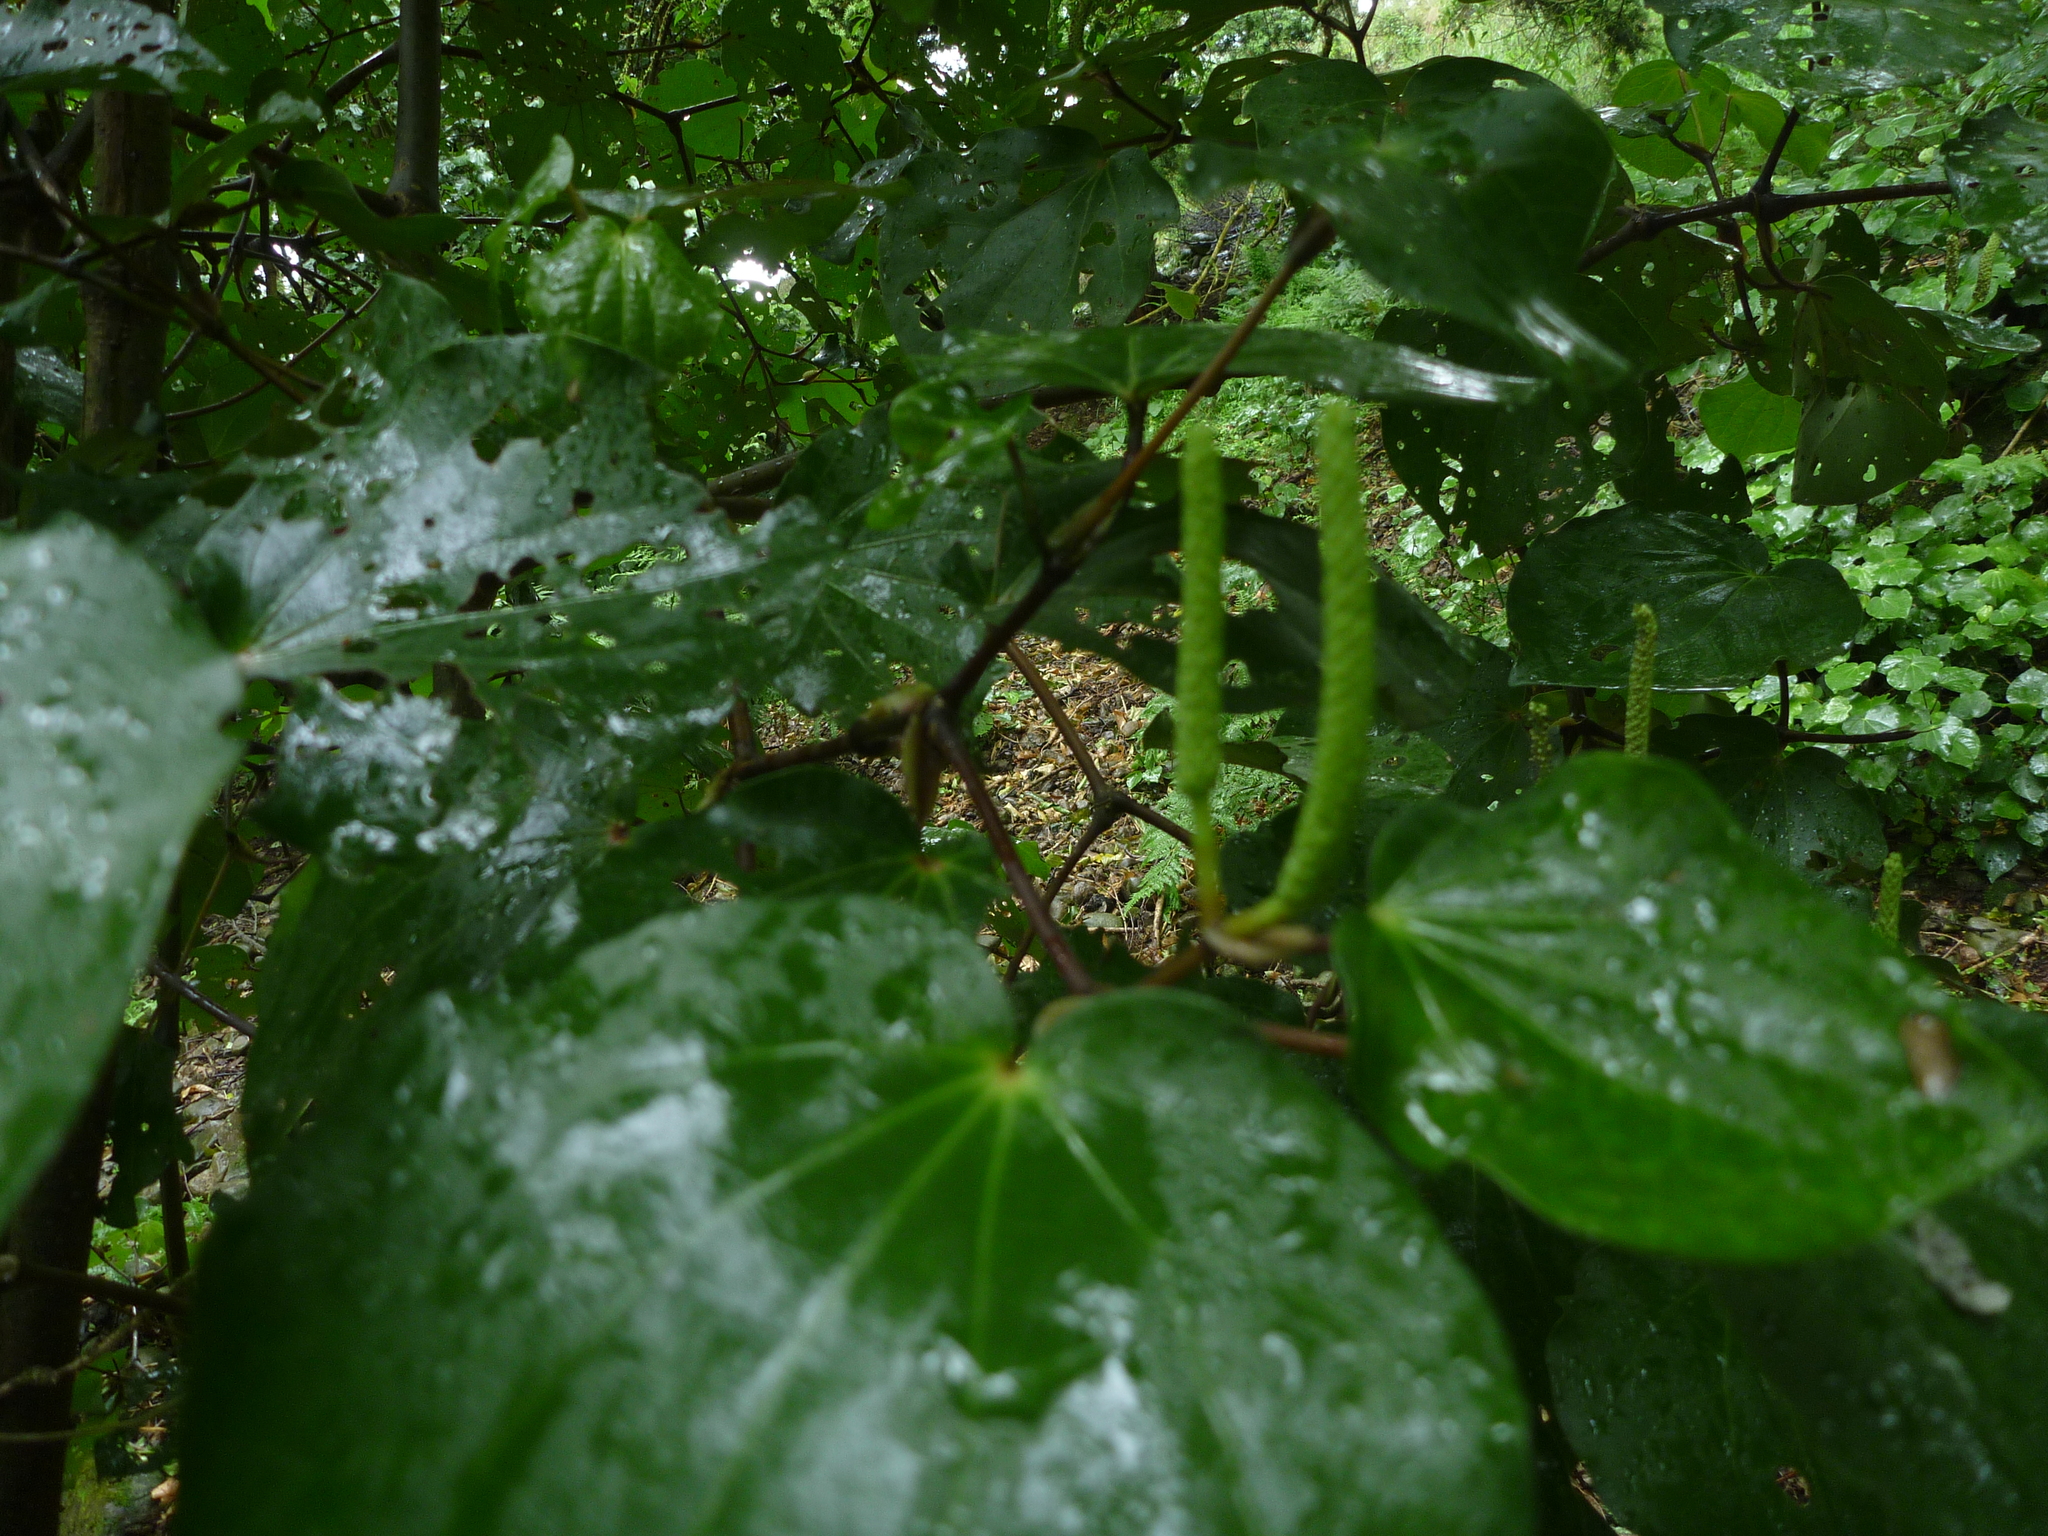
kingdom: Plantae
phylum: Tracheophyta
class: Magnoliopsida
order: Piperales
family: Piperaceae
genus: Macropiper
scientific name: Macropiper excelsum
